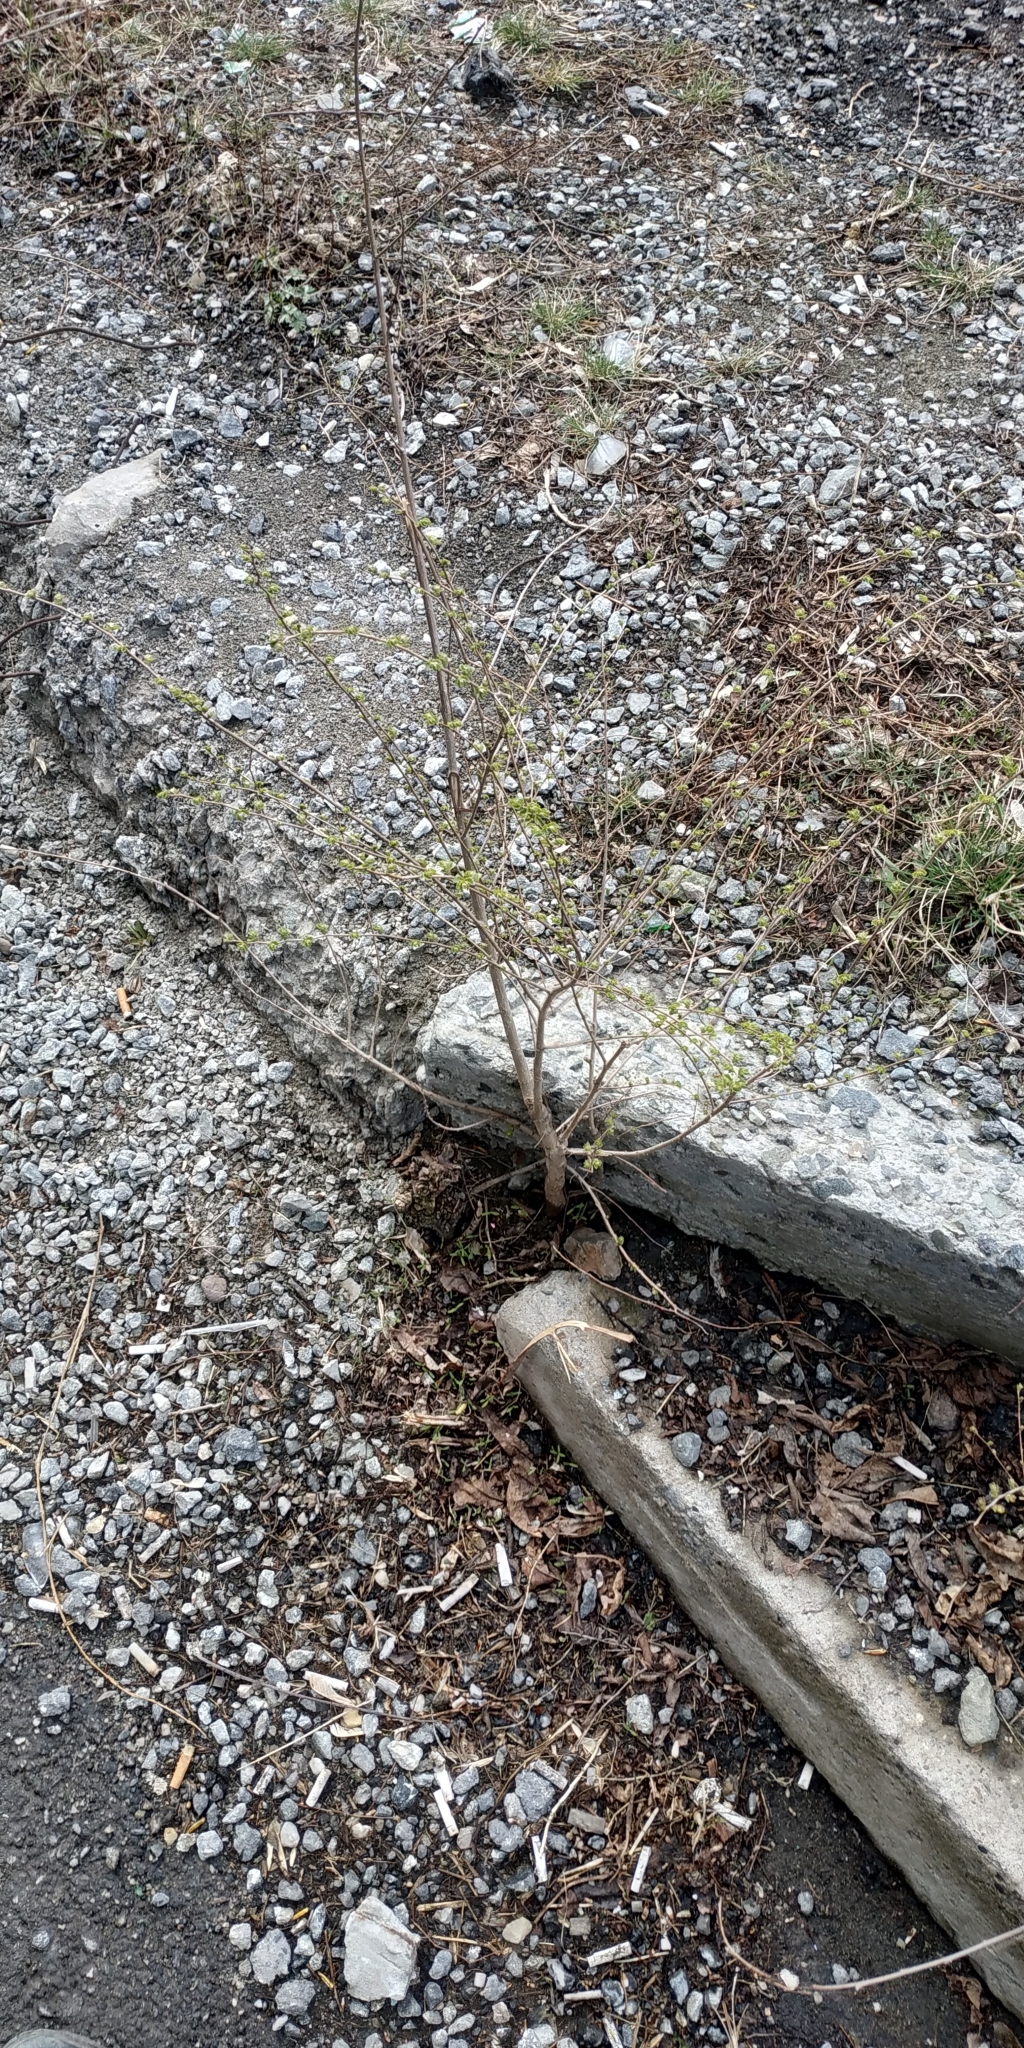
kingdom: Plantae
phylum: Tracheophyta
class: Magnoliopsida
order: Sapindales
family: Sapindaceae
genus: Acer
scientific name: Acer negundo
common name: Ashleaf maple
